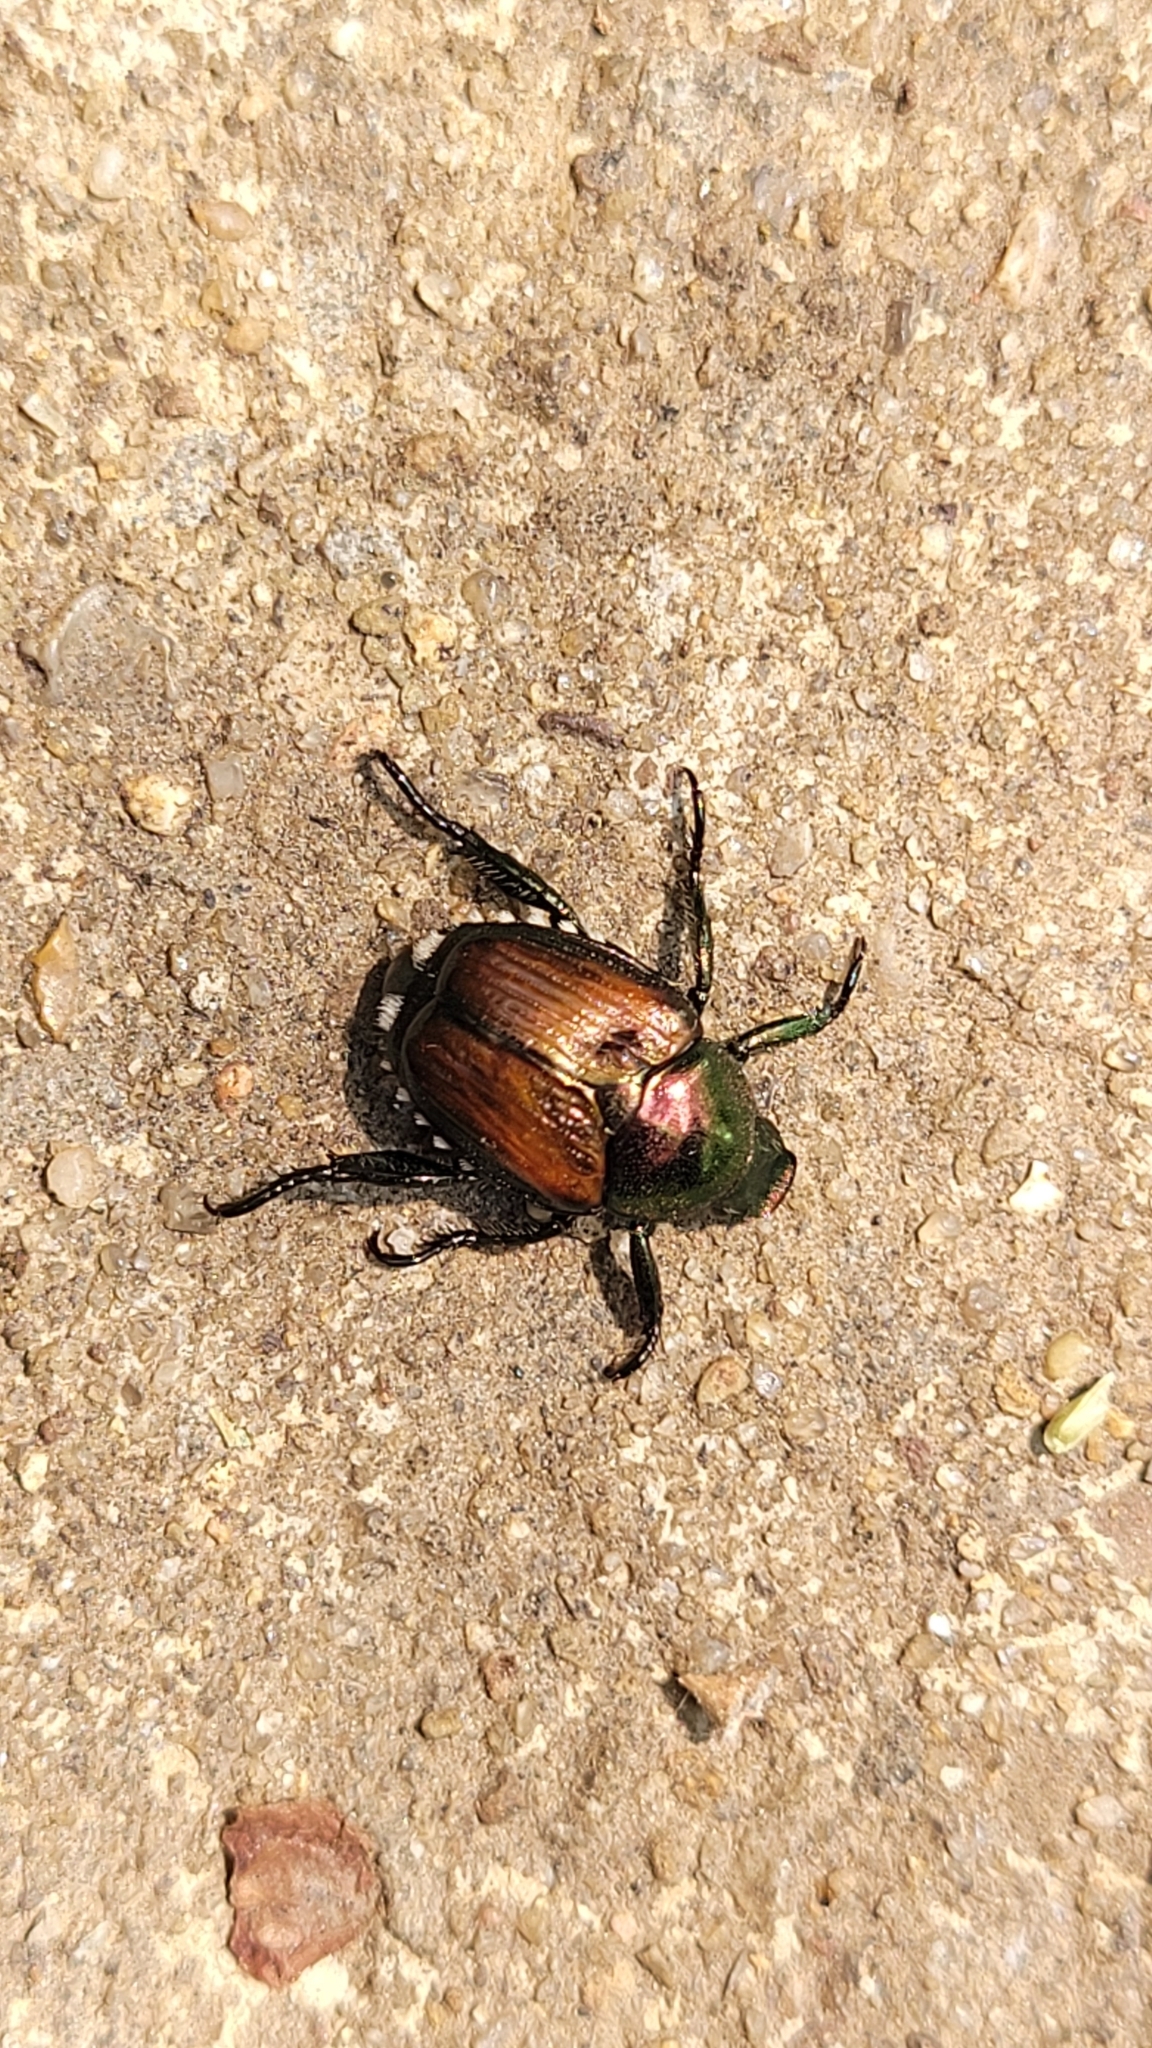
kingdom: Animalia
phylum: Arthropoda
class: Insecta
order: Coleoptera
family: Scarabaeidae
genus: Popillia
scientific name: Popillia japonica
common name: Japanese beetle
